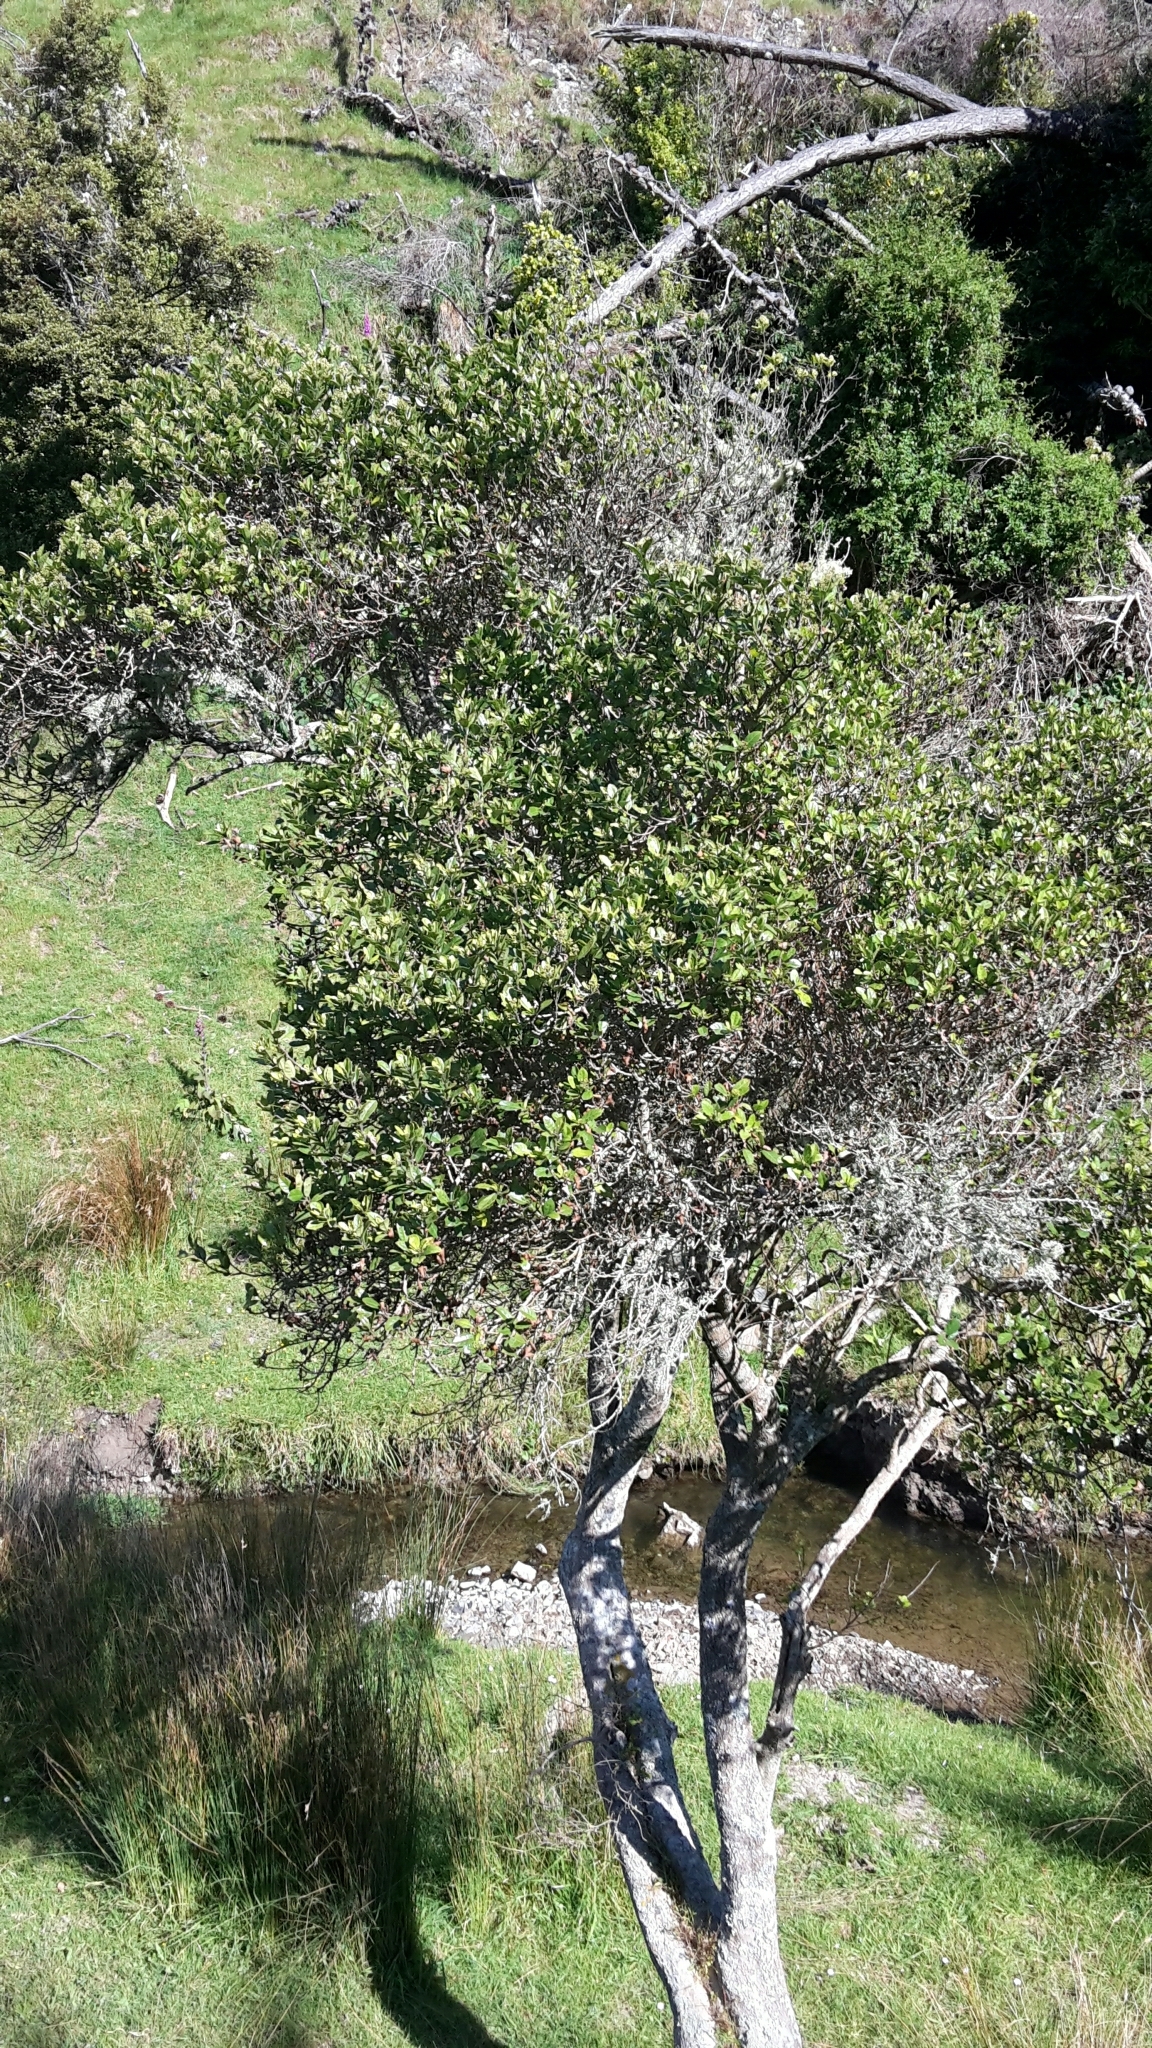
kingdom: Plantae
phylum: Tracheophyta
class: Magnoliopsida
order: Apiales
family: Pennantiaceae
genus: Pennantia
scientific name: Pennantia corymbosa
